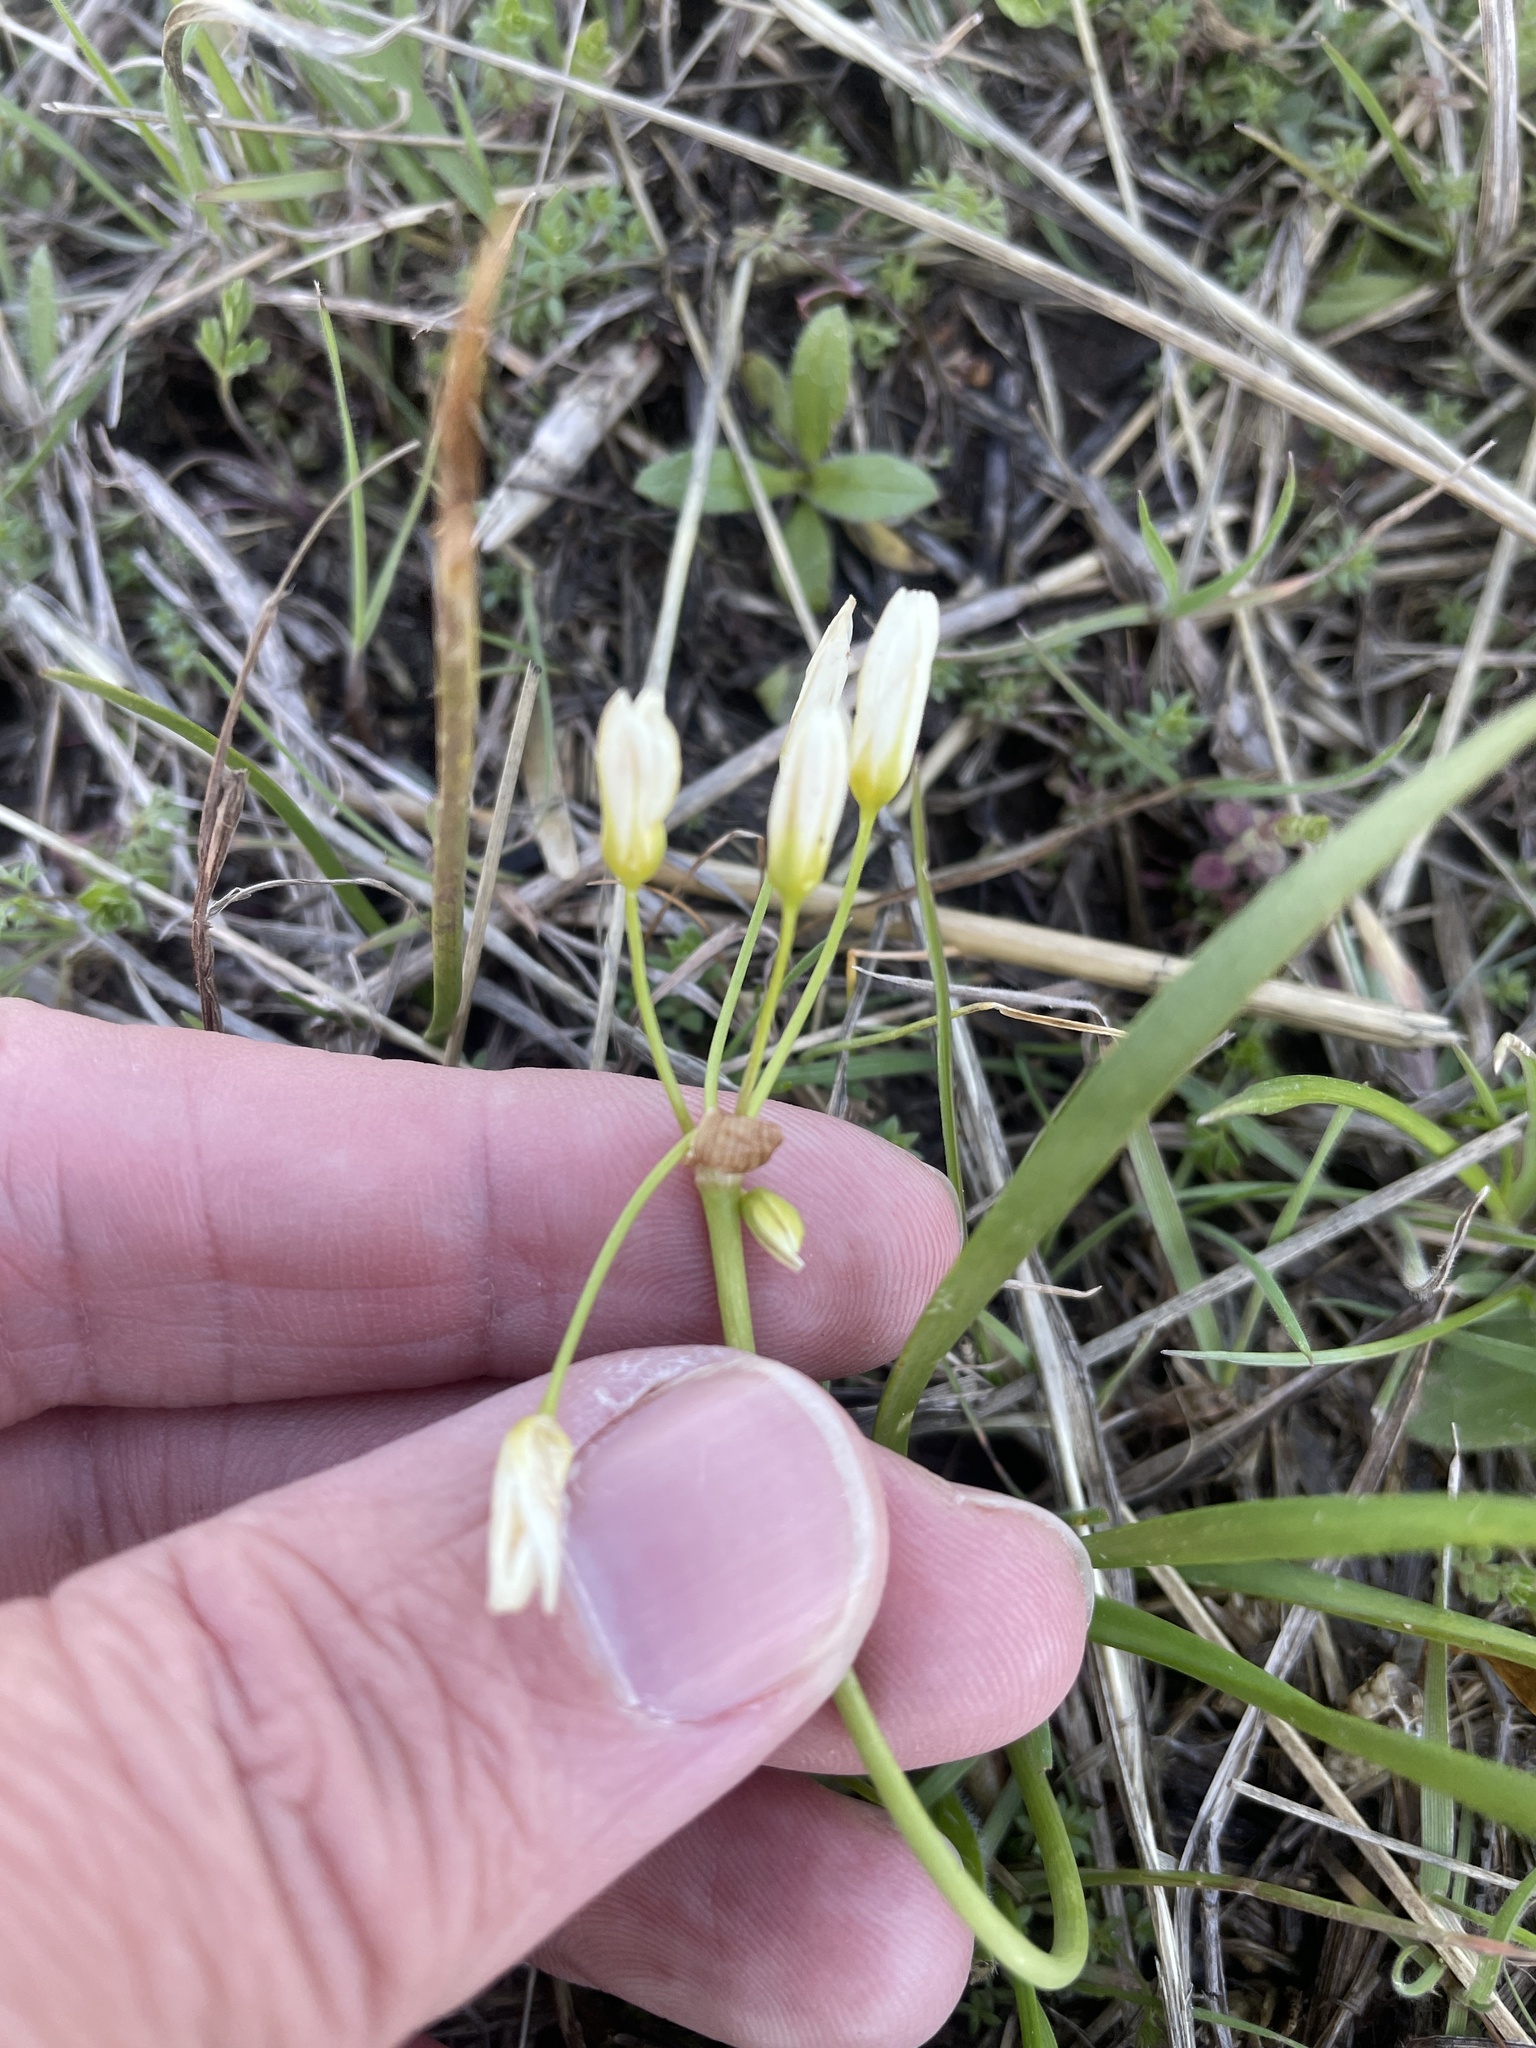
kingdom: Plantae
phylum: Tracheophyta
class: Liliopsida
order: Asparagales
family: Amaryllidaceae
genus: Nothoscordum
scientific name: Nothoscordum bivalve
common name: Crow-poison
